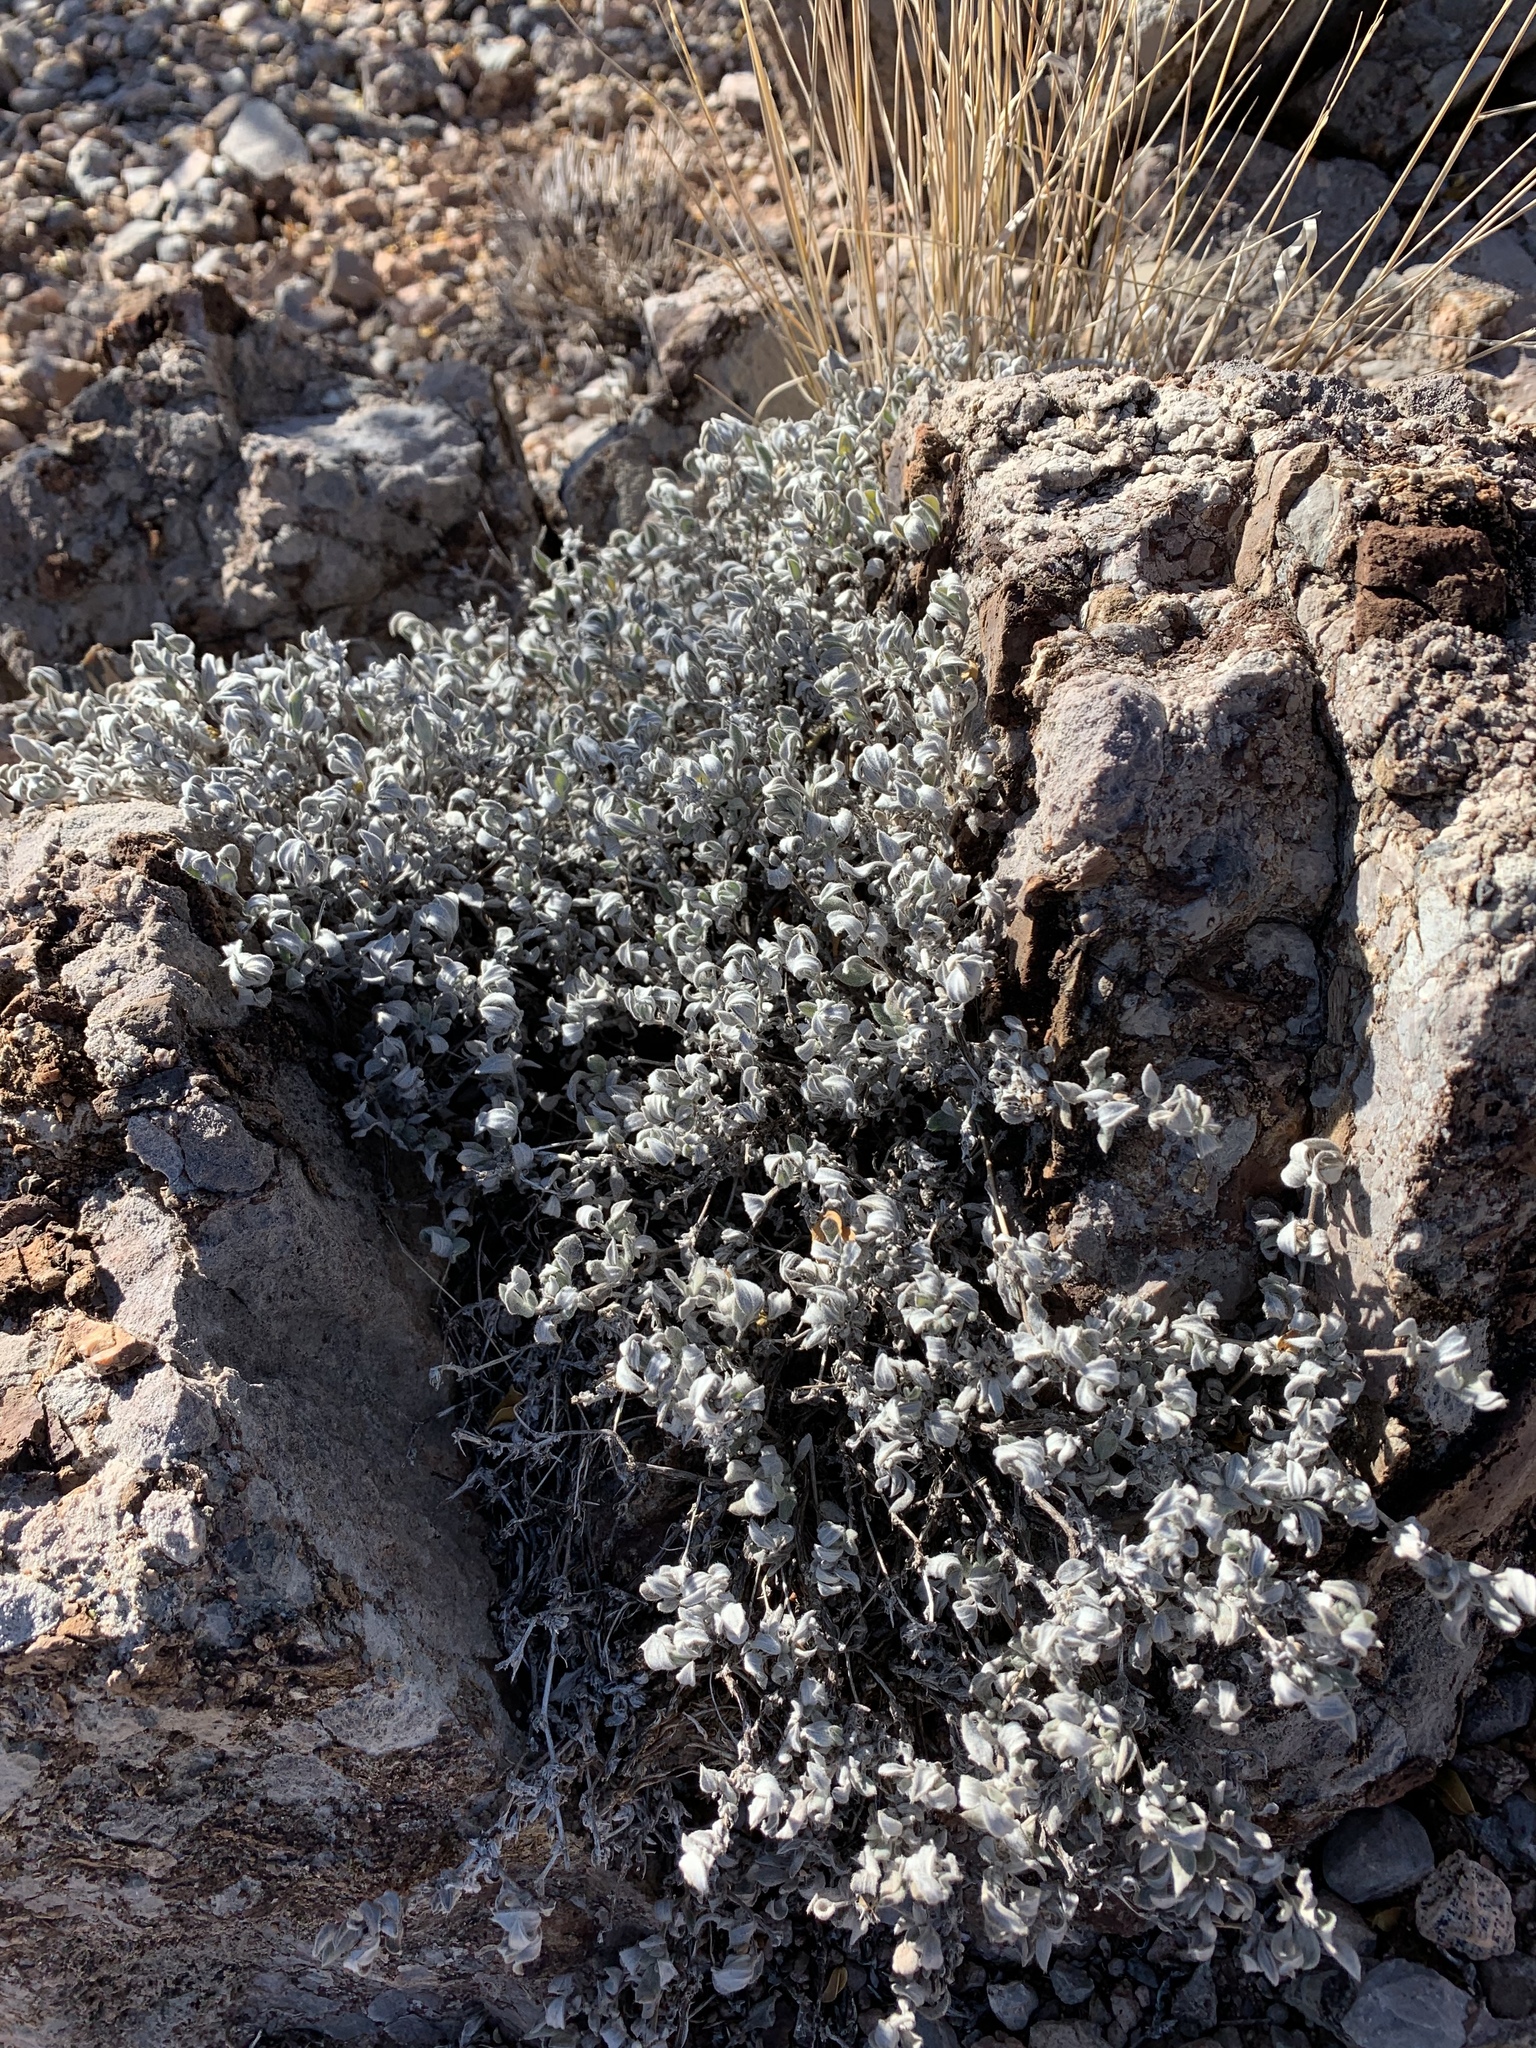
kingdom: Plantae
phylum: Tracheophyta
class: Magnoliopsida
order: Boraginales
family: Ehretiaceae
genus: Tiquilia
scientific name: Tiquilia canescens
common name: Hairy tiquilia
